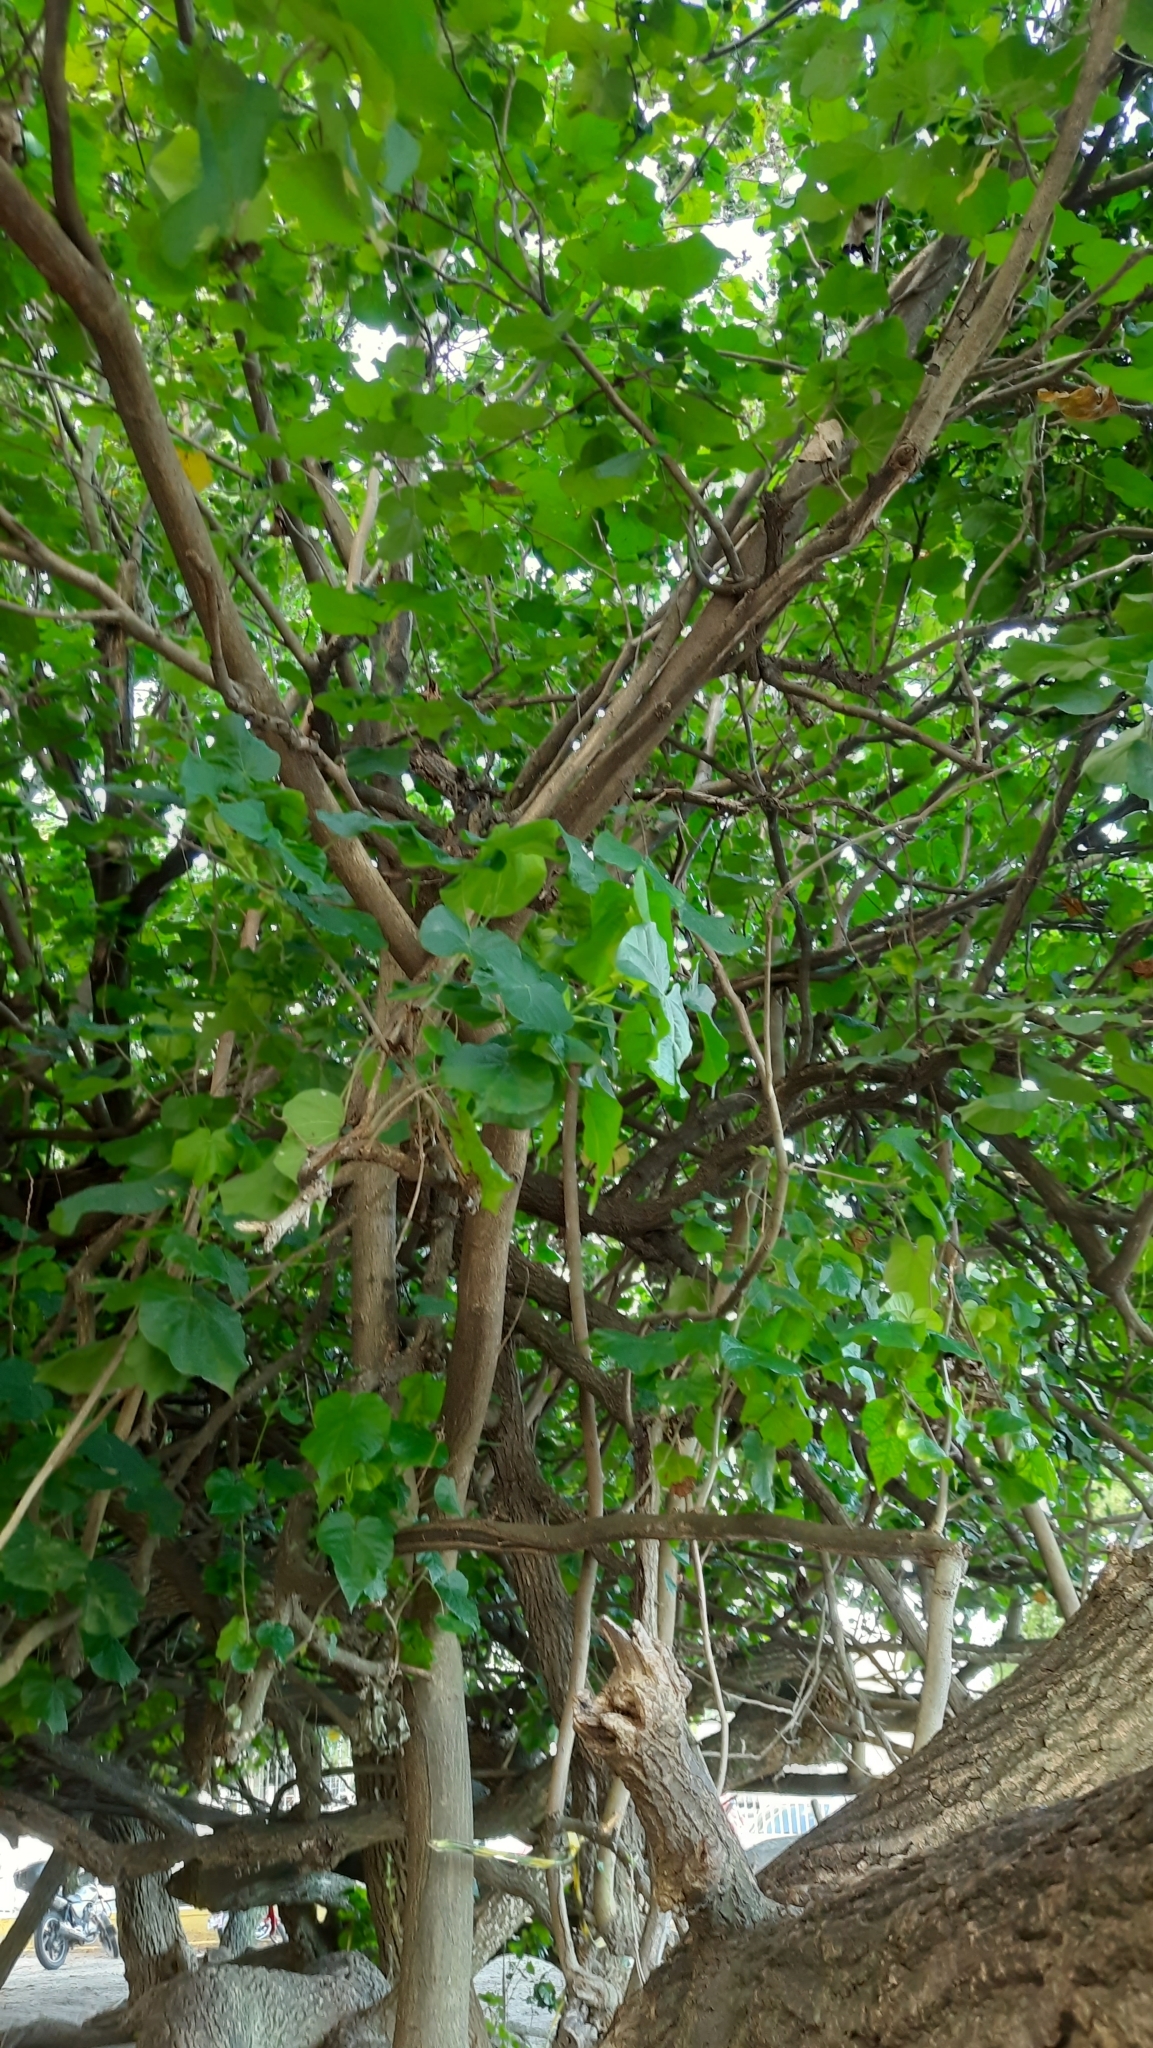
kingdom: Plantae
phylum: Tracheophyta
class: Magnoliopsida
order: Malvales
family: Malvaceae
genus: Talipariti
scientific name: Talipariti tiliaceum
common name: Sea hibiscus
